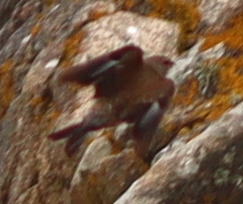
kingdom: Animalia
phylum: Chordata
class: Aves
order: Passeriformes
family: Fringillidae
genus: Linaria
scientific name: Linaria cannabina
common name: Common linnet
